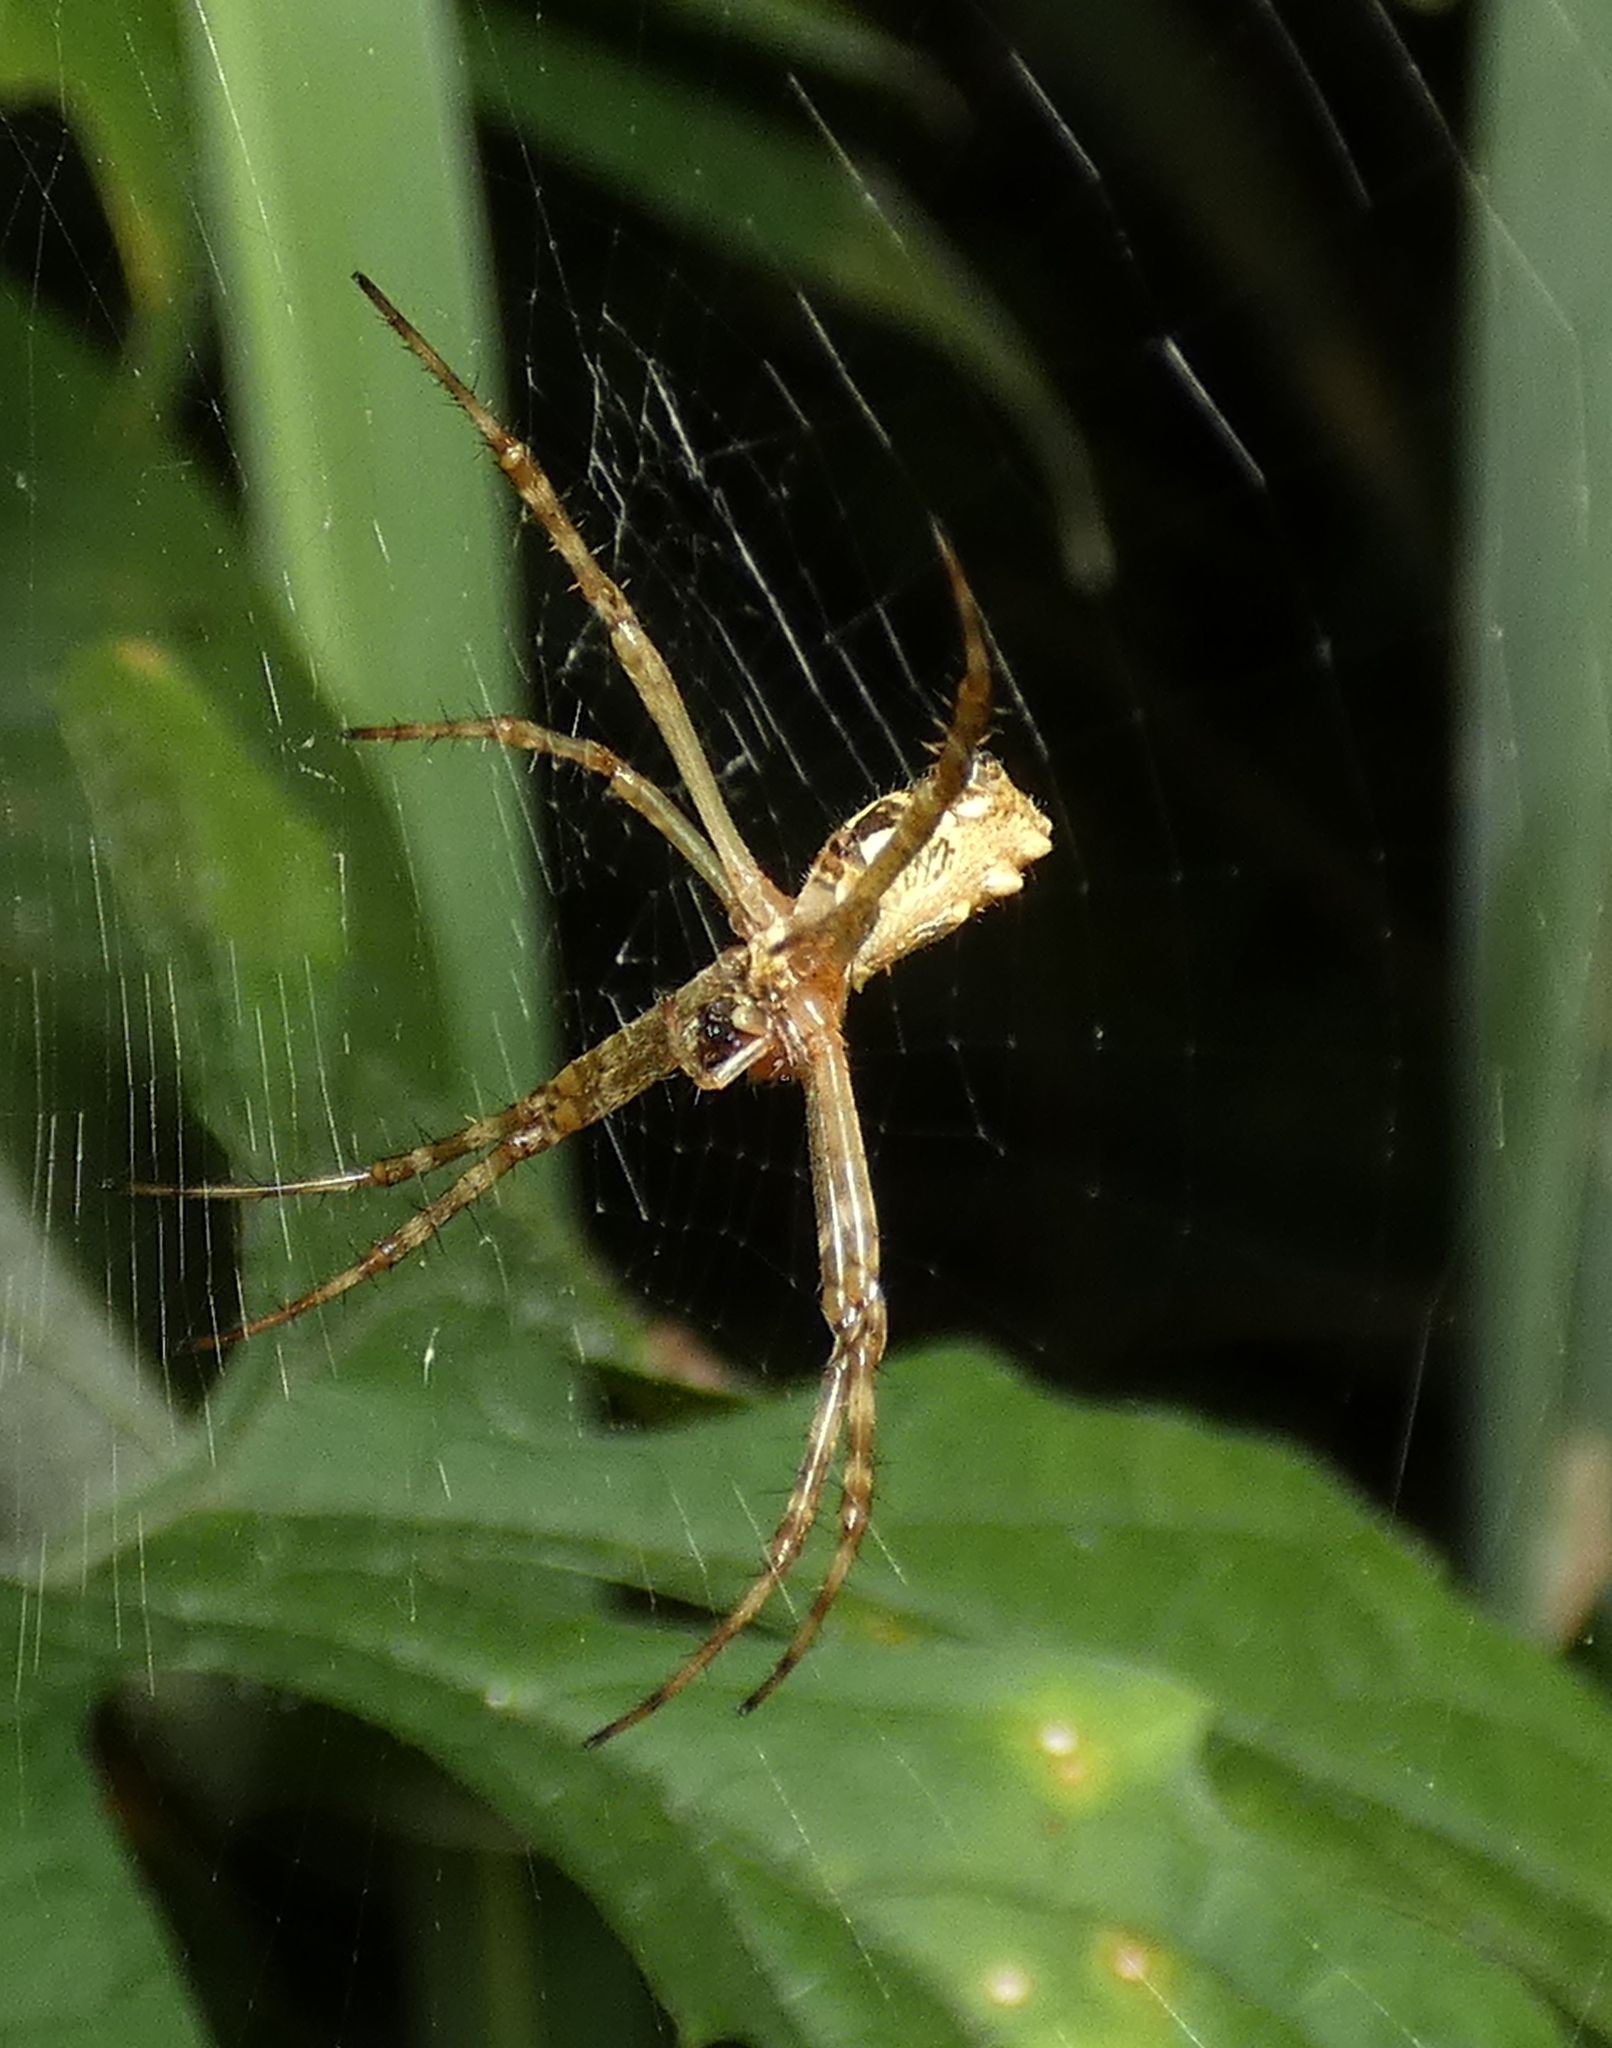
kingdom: Animalia
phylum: Arthropoda
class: Arachnida
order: Araneae
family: Araneidae
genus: Argiope
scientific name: Argiope argentata
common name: Orb weavers
